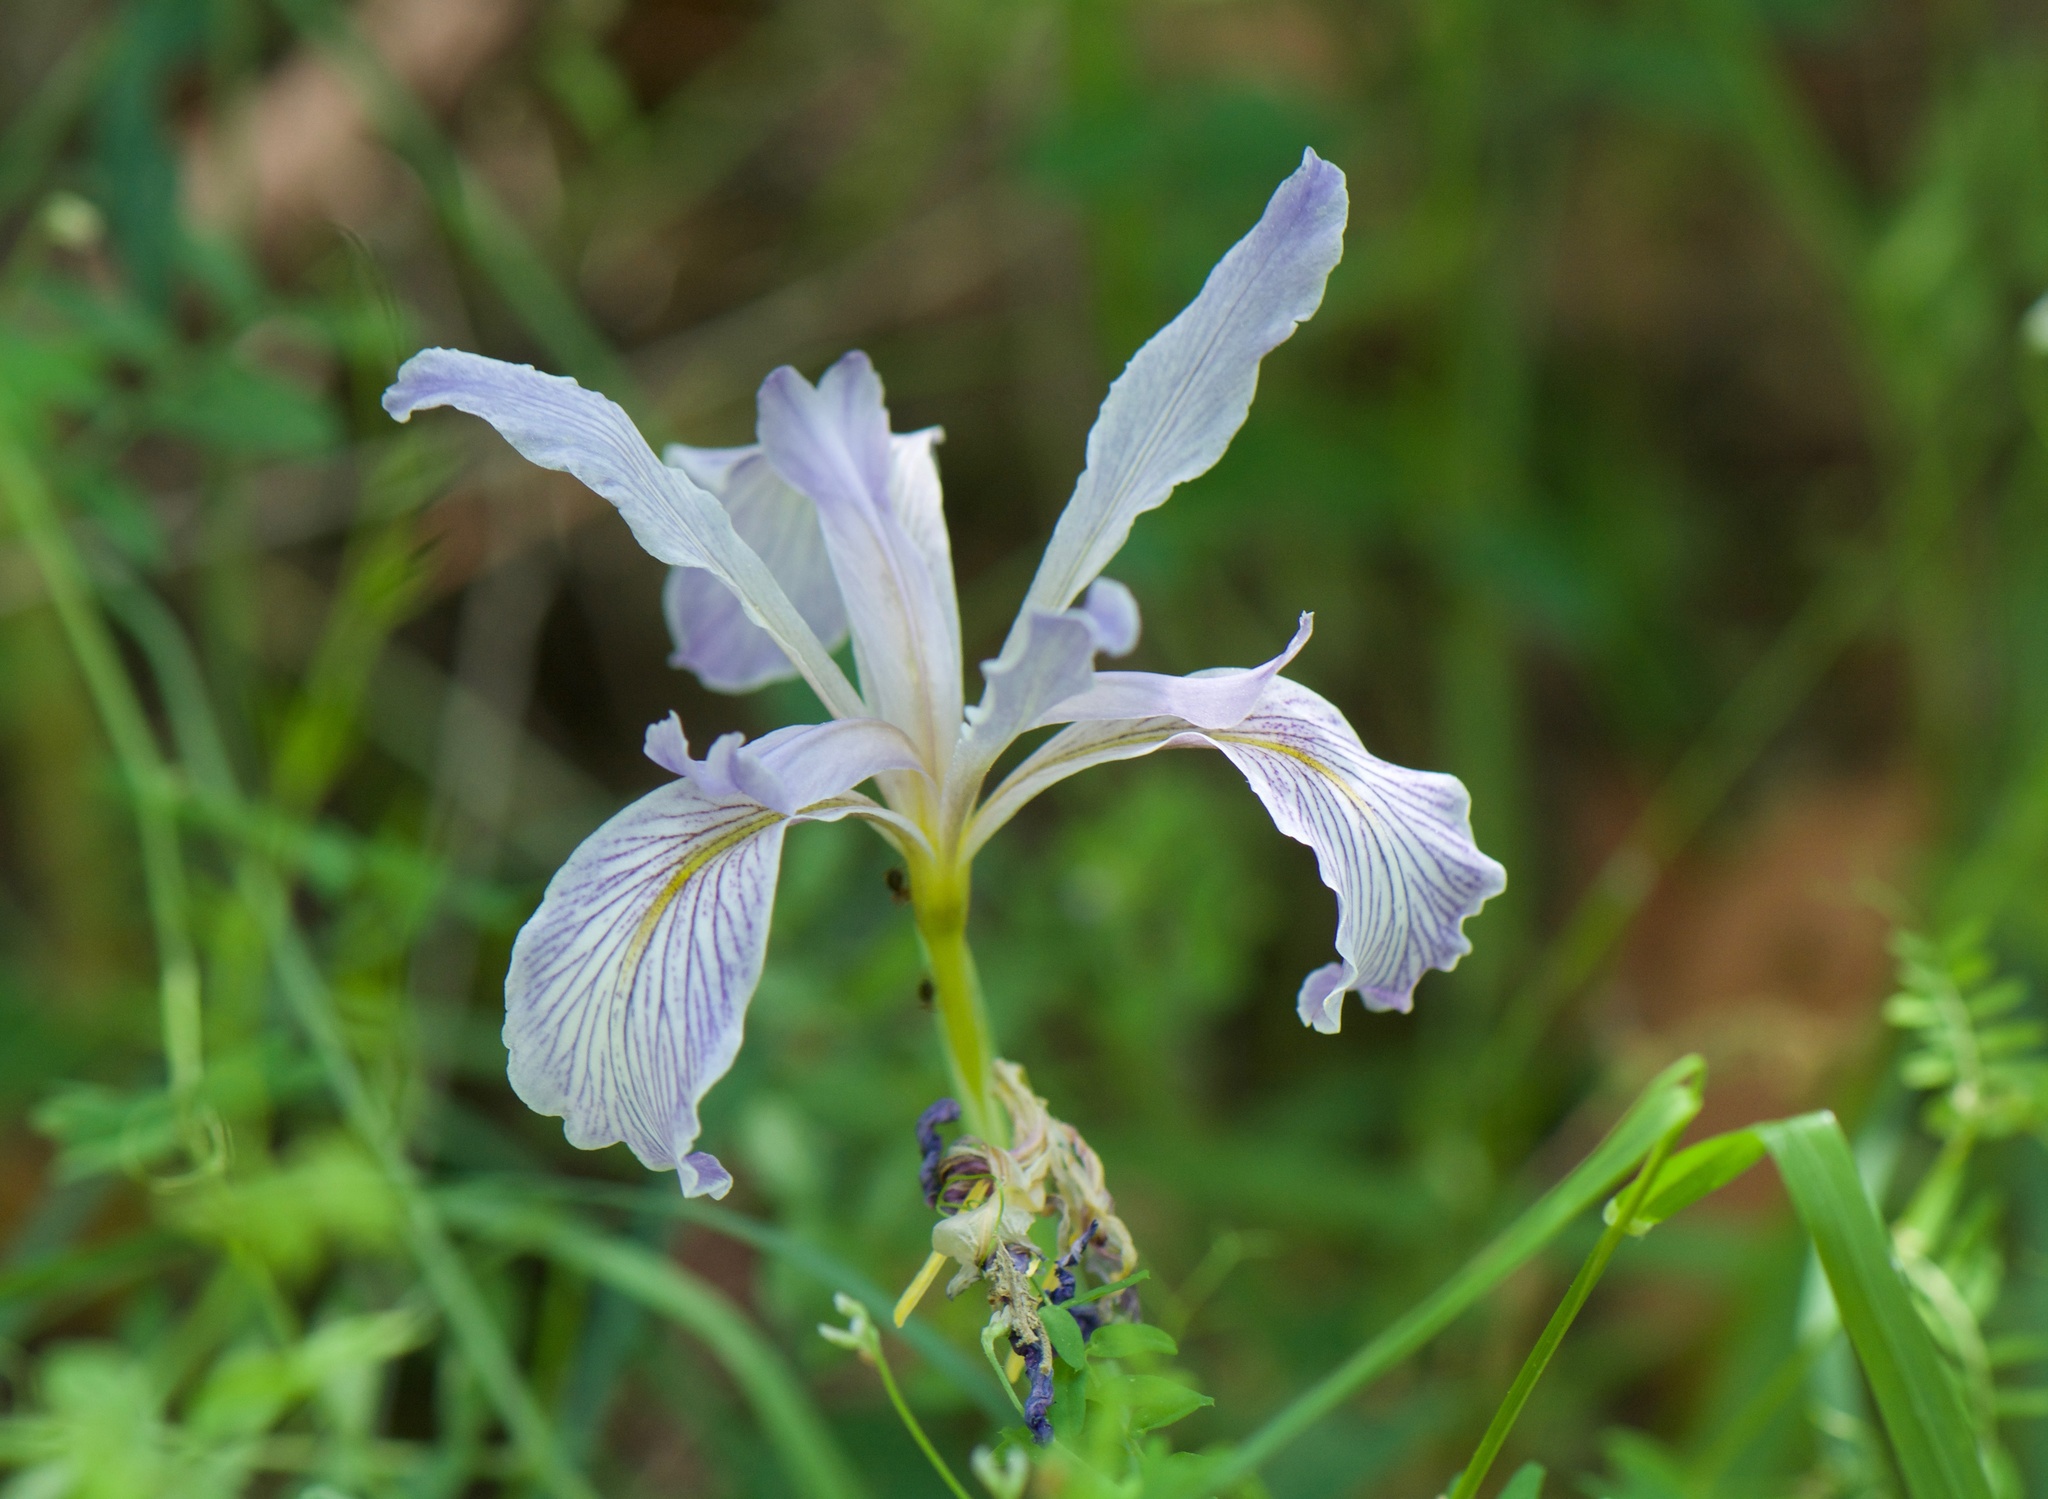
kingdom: Plantae
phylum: Tracheophyta
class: Liliopsida
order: Asparagales
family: Iridaceae
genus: Iris
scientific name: Iris macrosiphon
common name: Ground iris
